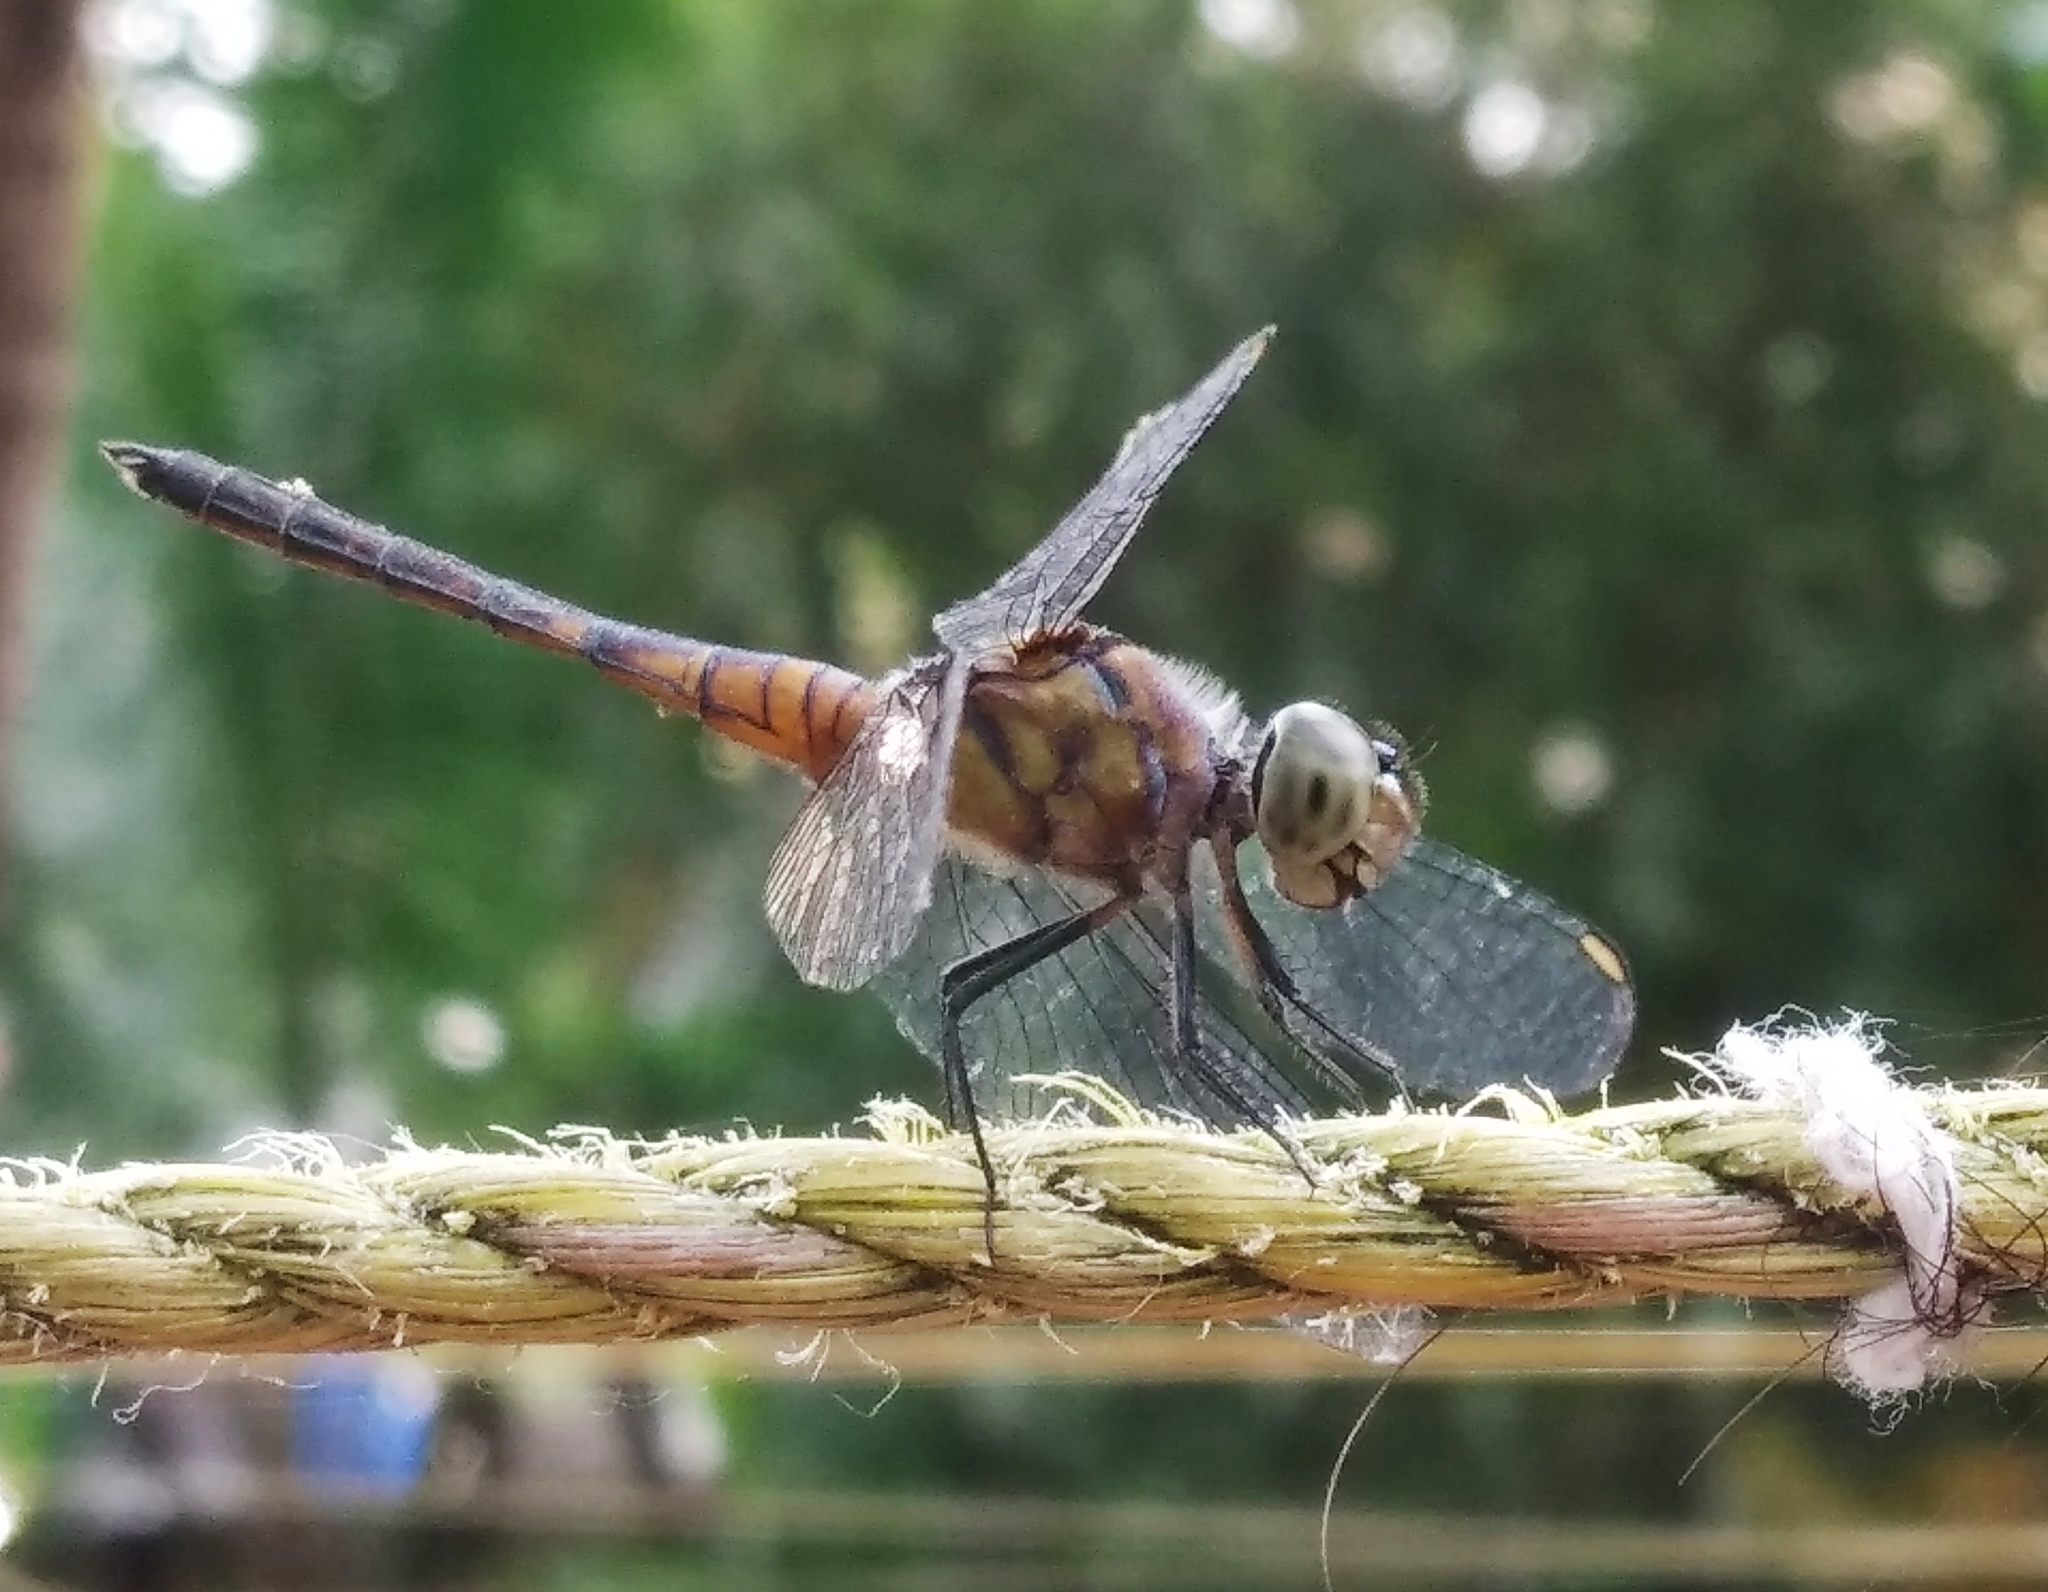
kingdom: Animalia
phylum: Arthropoda
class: Insecta
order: Odonata
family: Libellulidae
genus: Brachydiplax
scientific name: Brachydiplax chalybea
